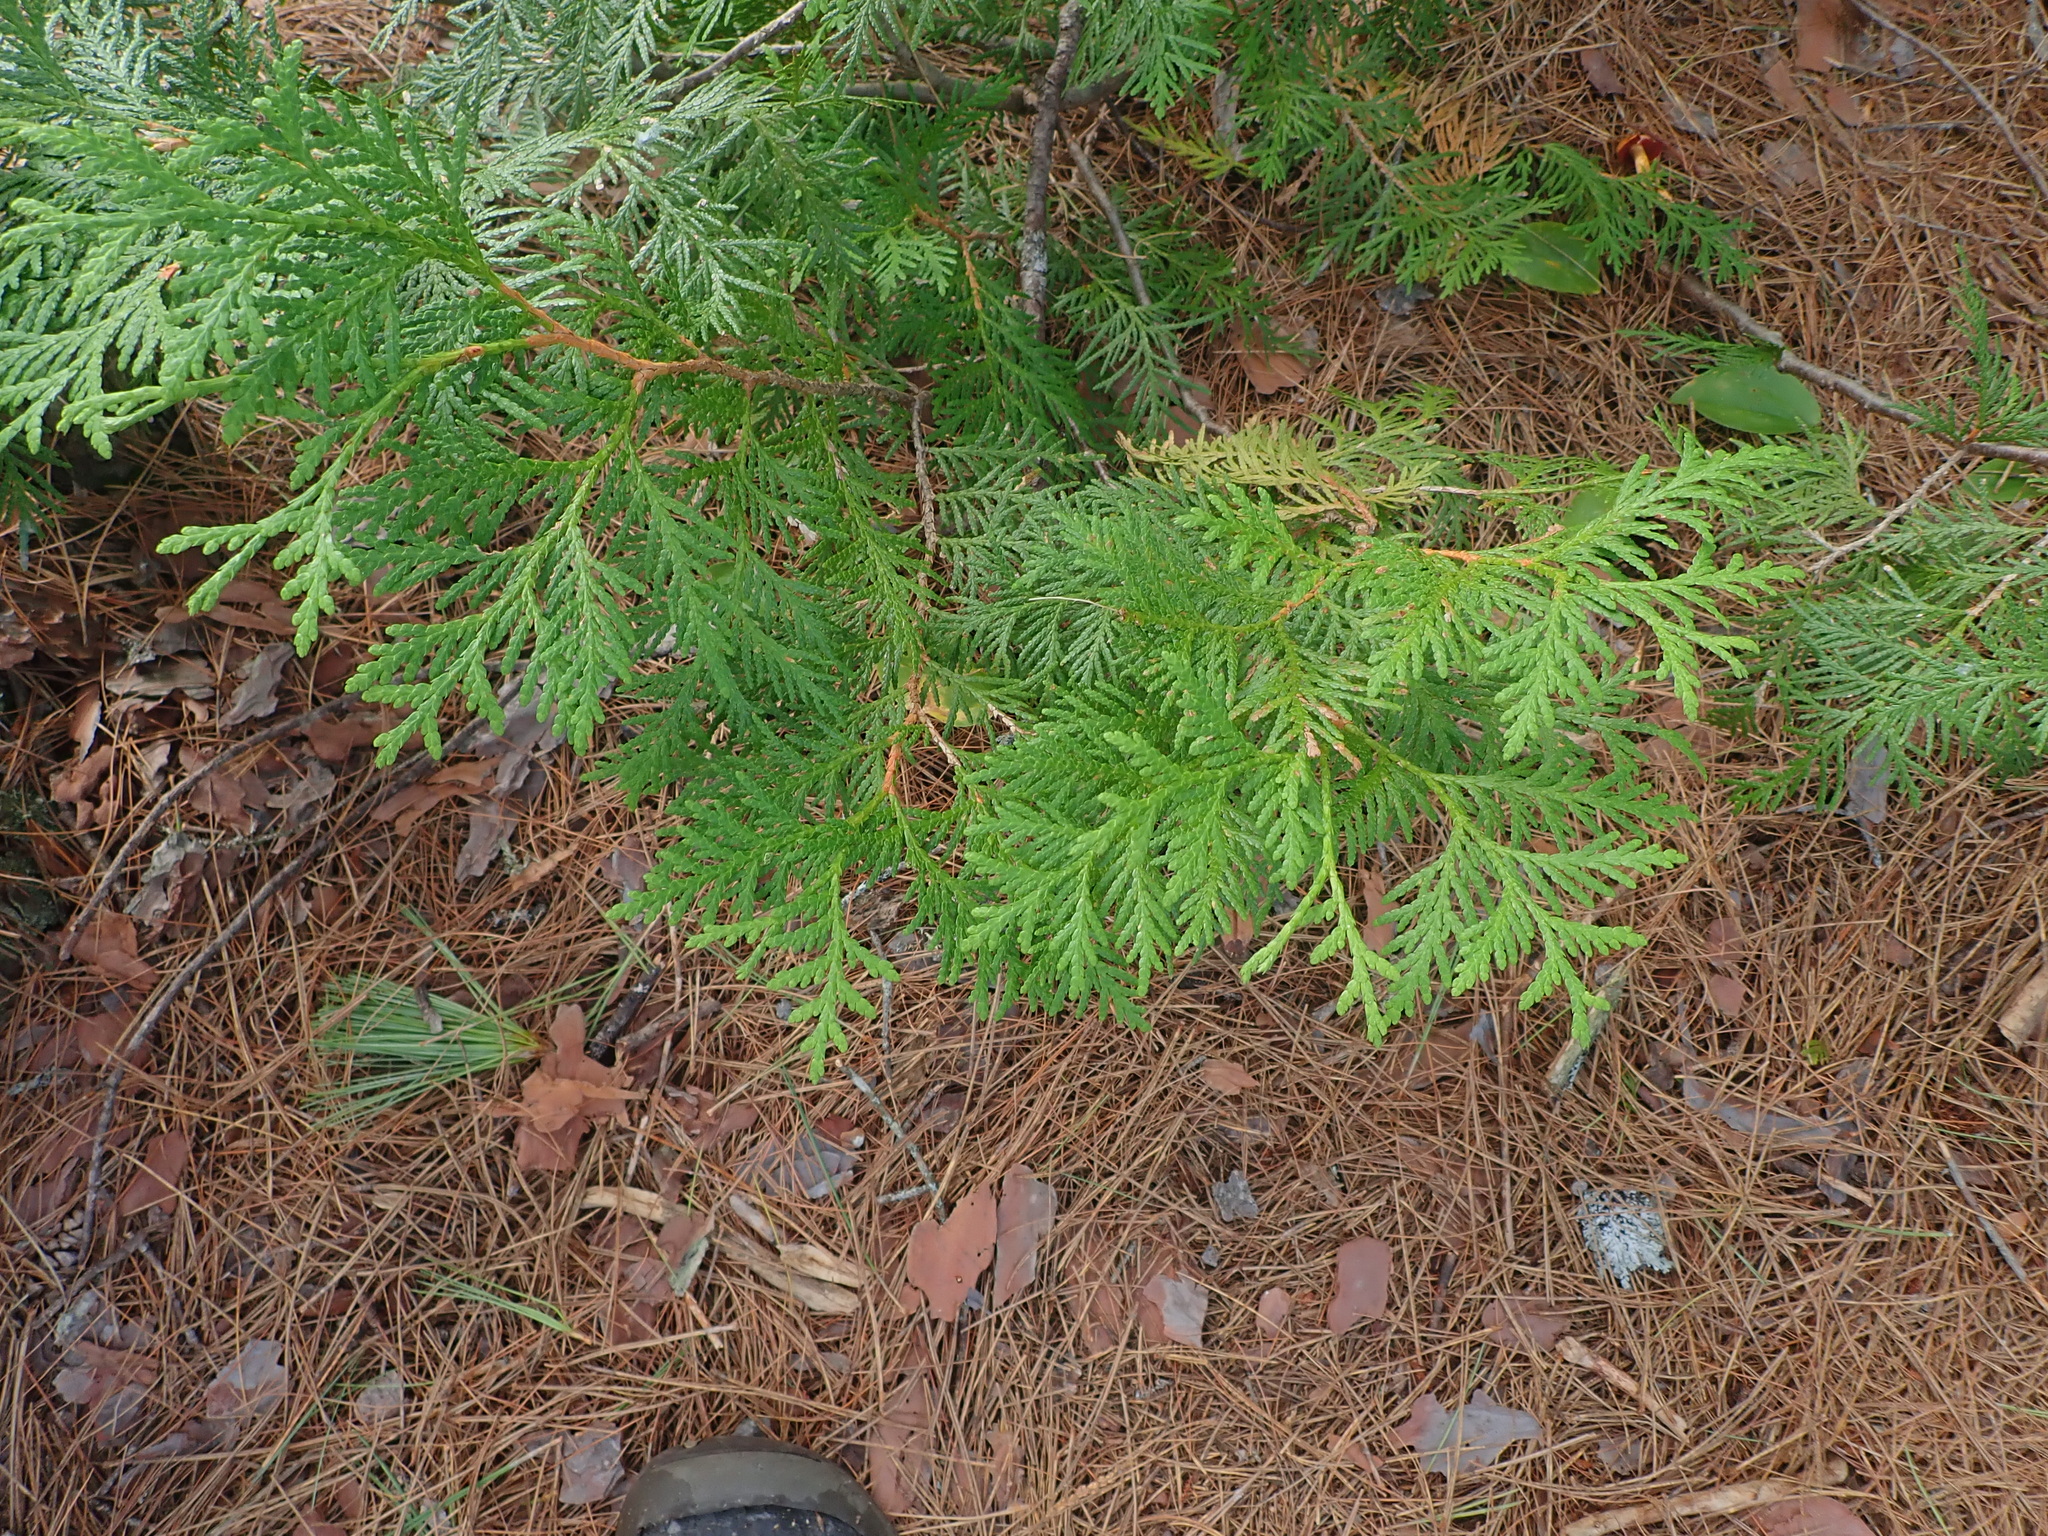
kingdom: Plantae
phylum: Tracheophyta
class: Pinopsida
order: Pinales
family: Cupressaceae
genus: Thuja
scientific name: Thuja occidentalis
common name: Northern white-cedar
